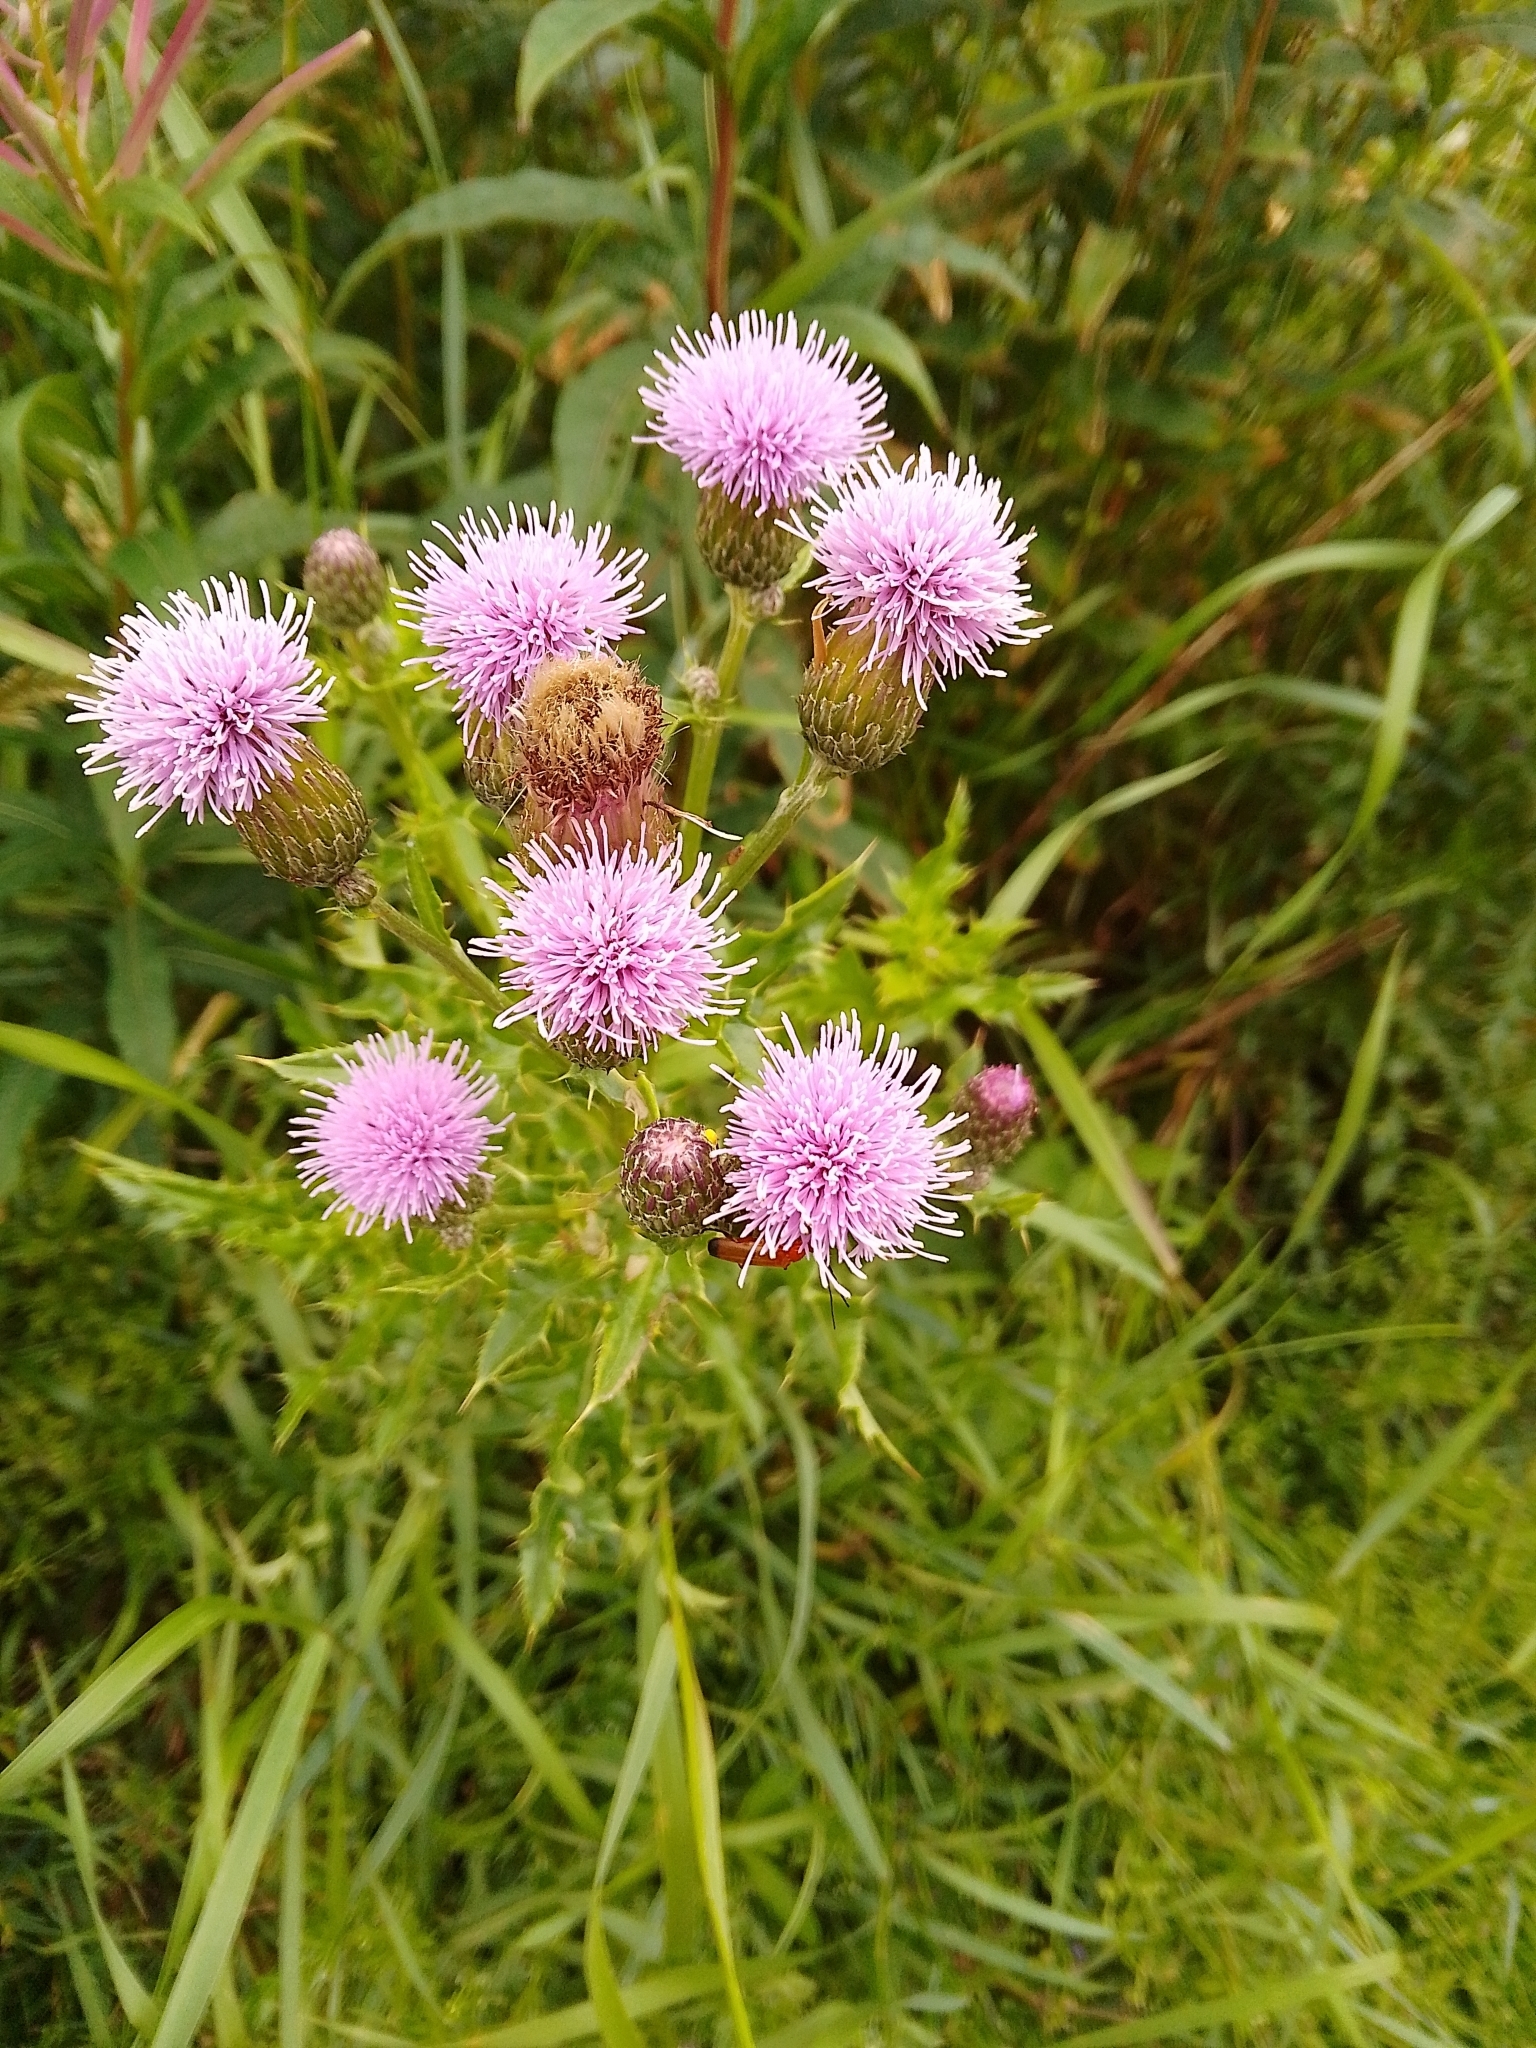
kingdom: Plantae
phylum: Tracheophyta
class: Magnoliopsida
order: Asterales
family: Asteraceae
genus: Cirsium
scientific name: Cirsium arvense
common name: Creeping thistle
